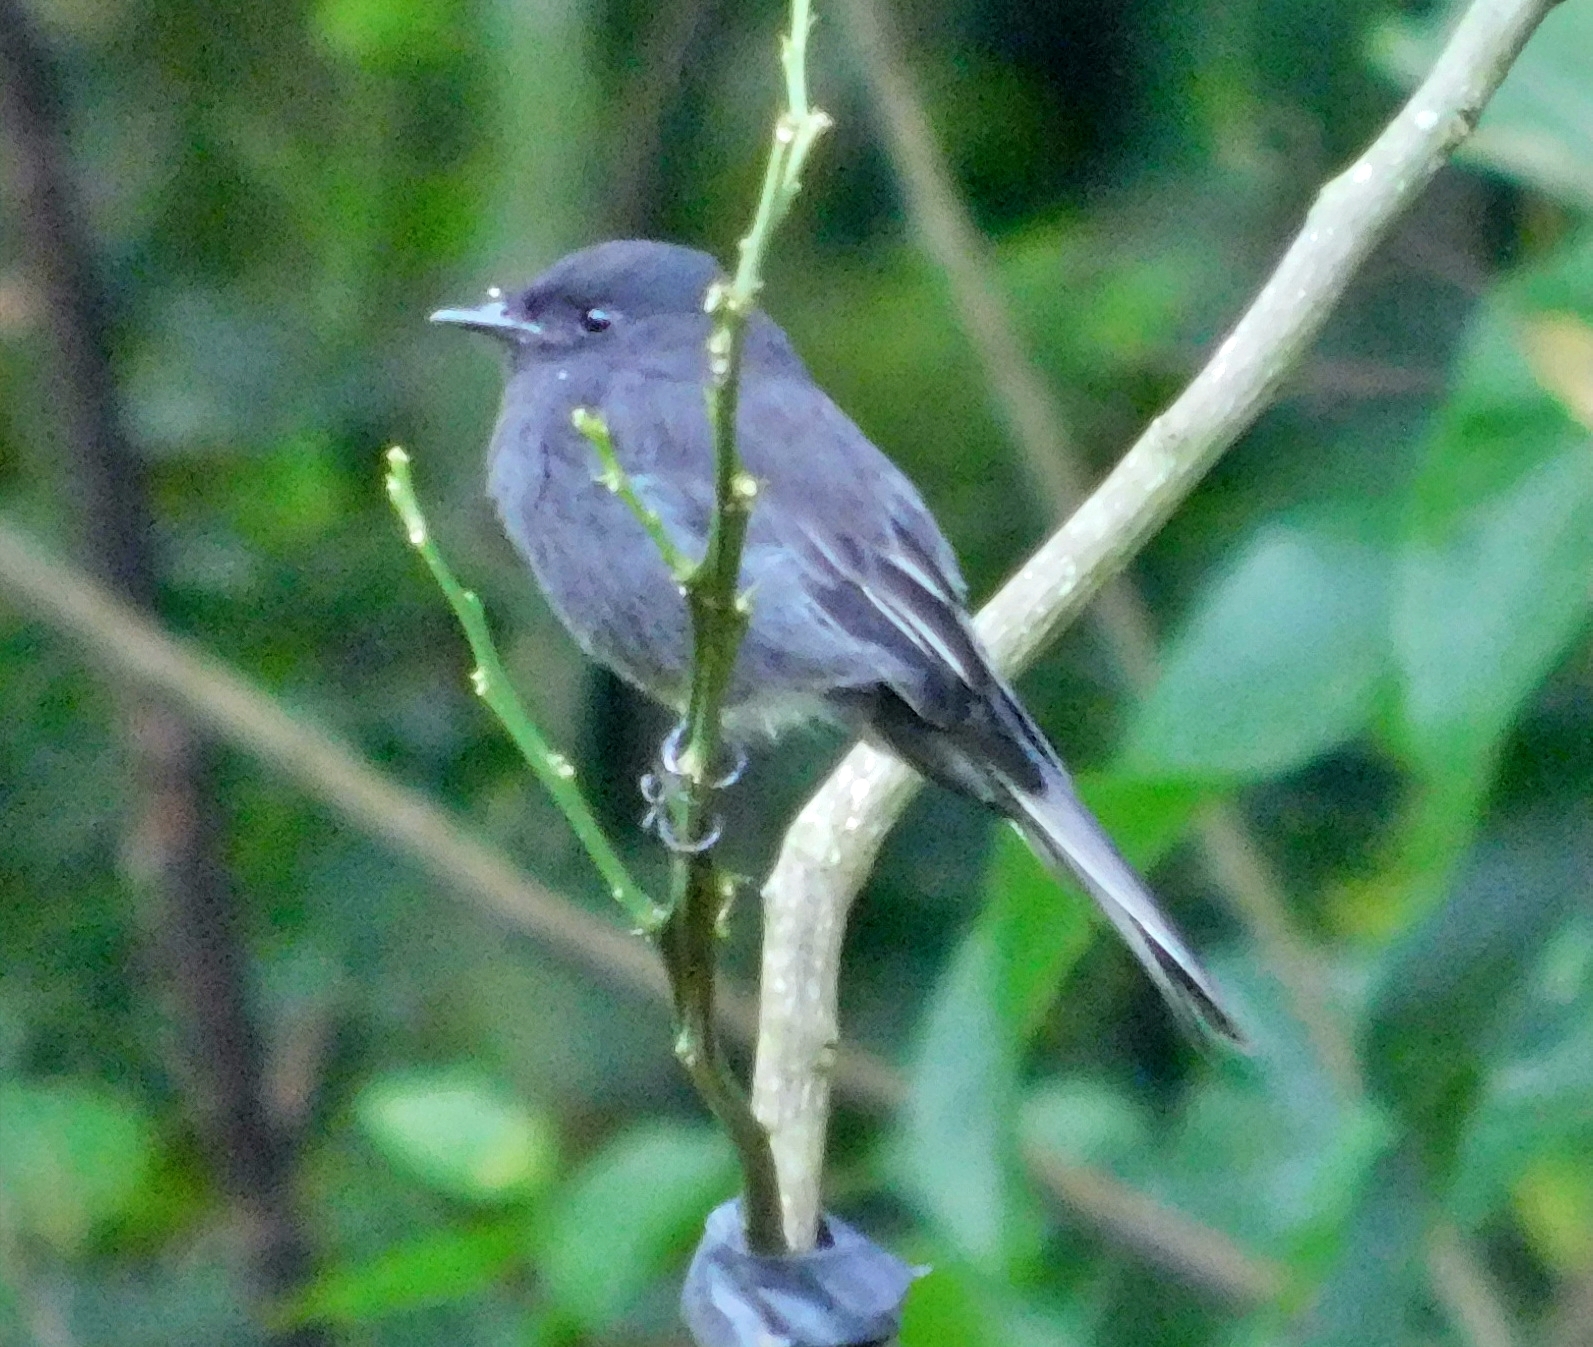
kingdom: Animalia
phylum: Chordata
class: Aves
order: Passeriformes
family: Tyrannidae
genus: Sayornis
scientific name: Sayornis nigricans
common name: Black phoebe
